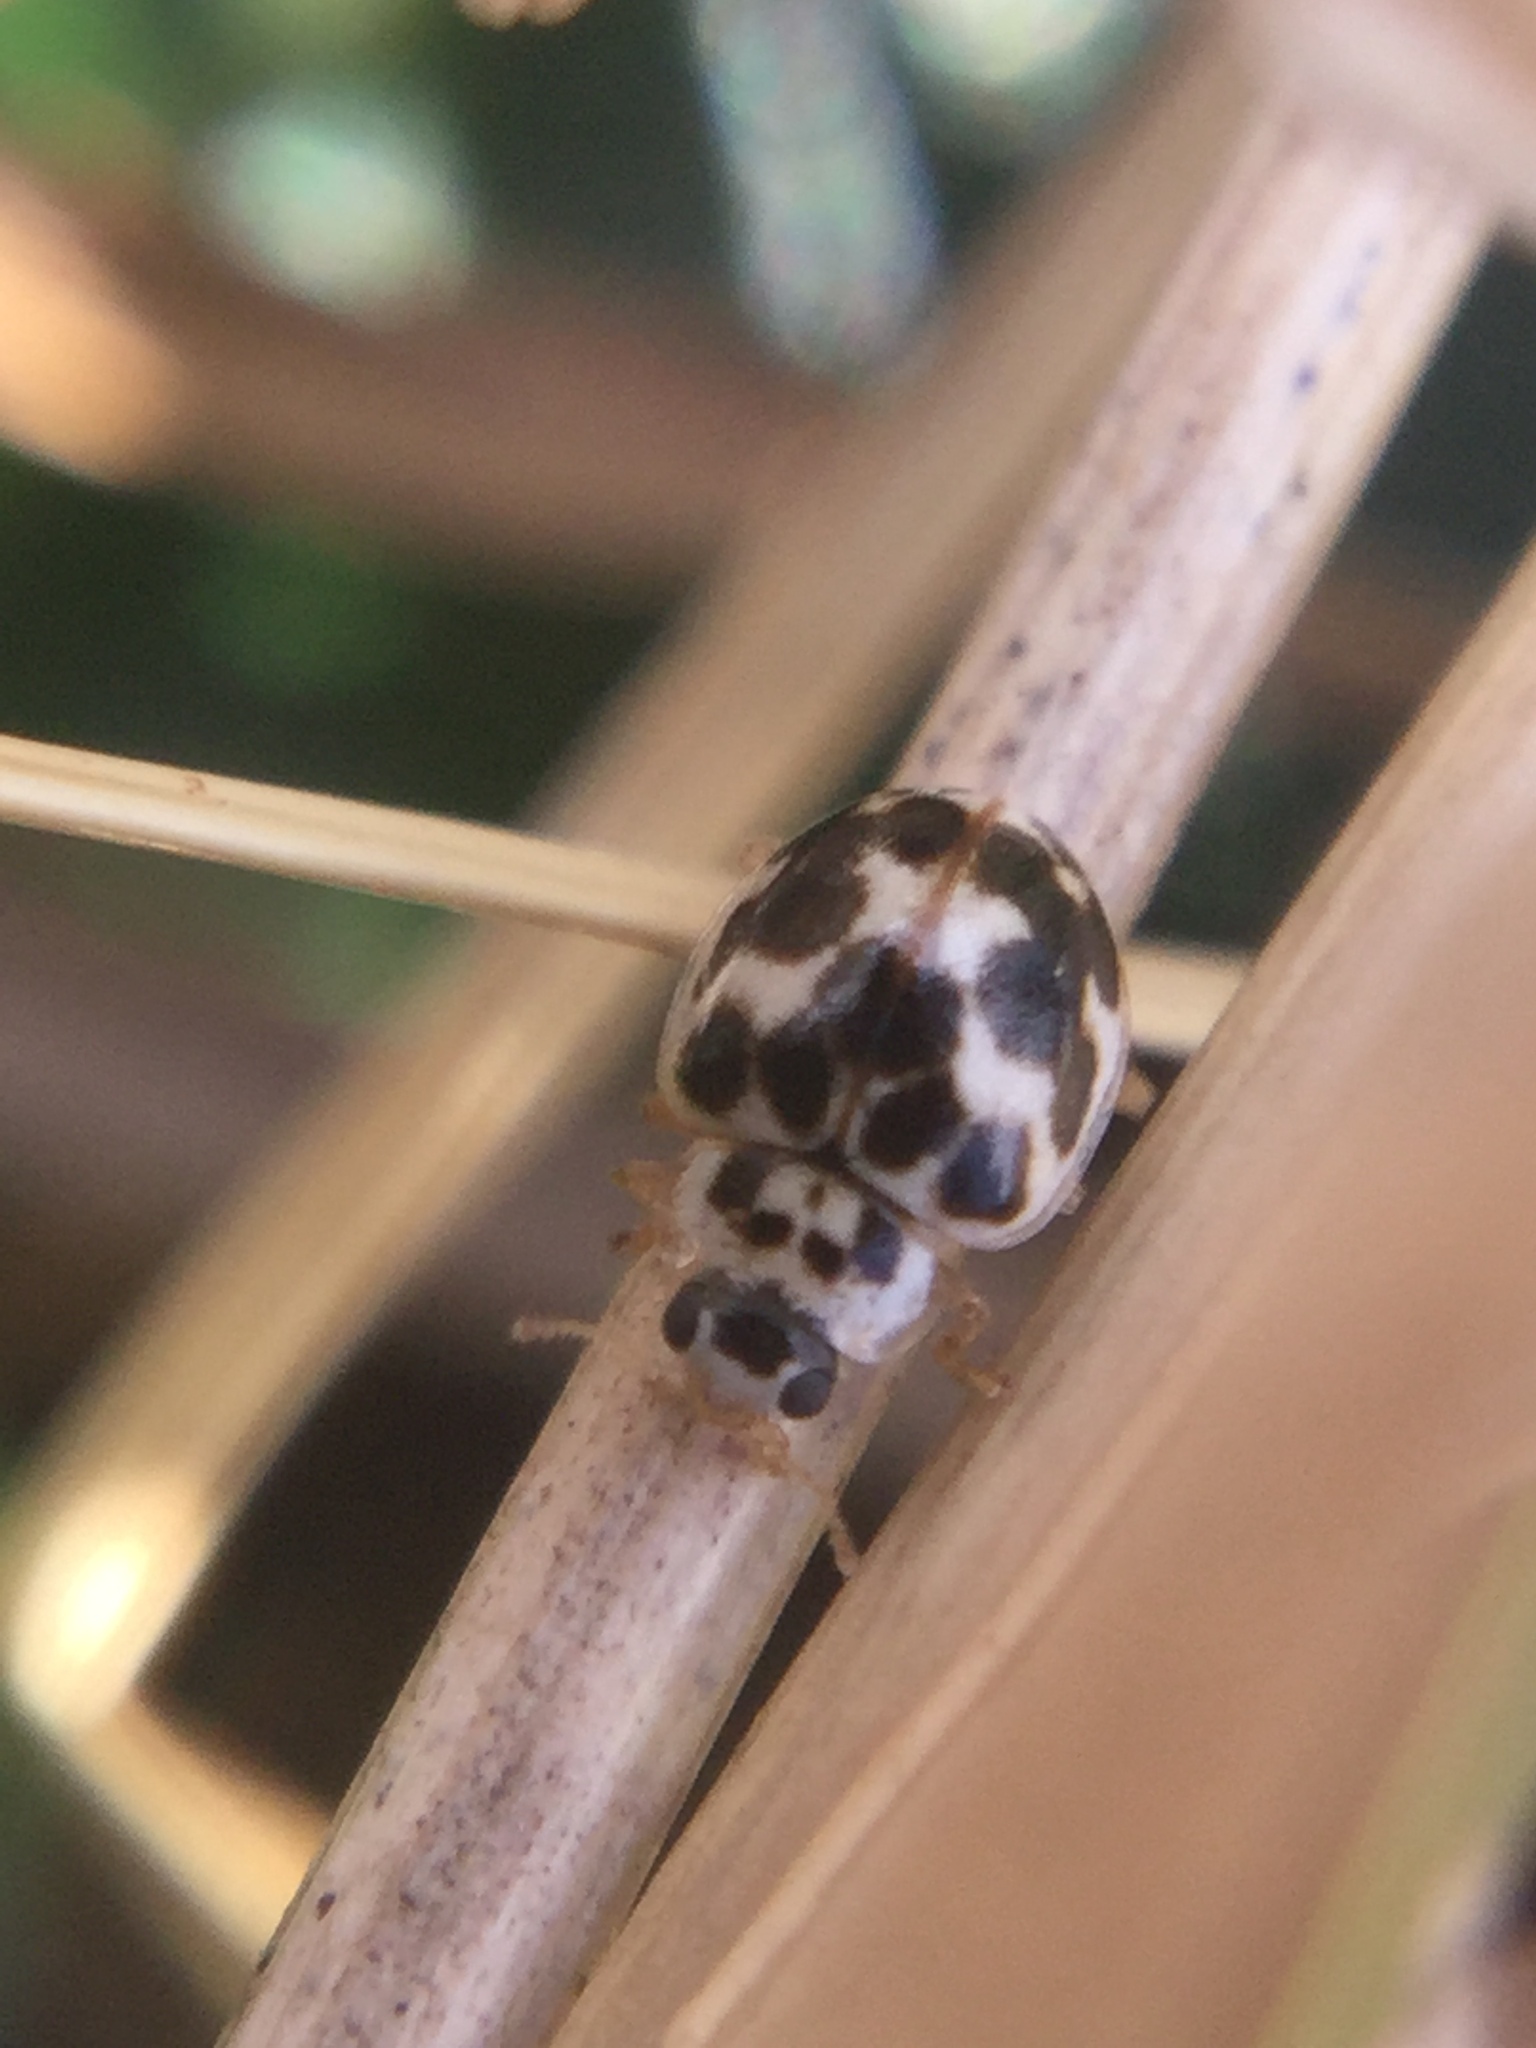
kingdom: Animalia
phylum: Arthropoda
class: Insecta
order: Coleoptera
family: Coccinellidae
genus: Psyllobora
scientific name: Psyllobora vigintimaculata
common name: Ladybird beetle
